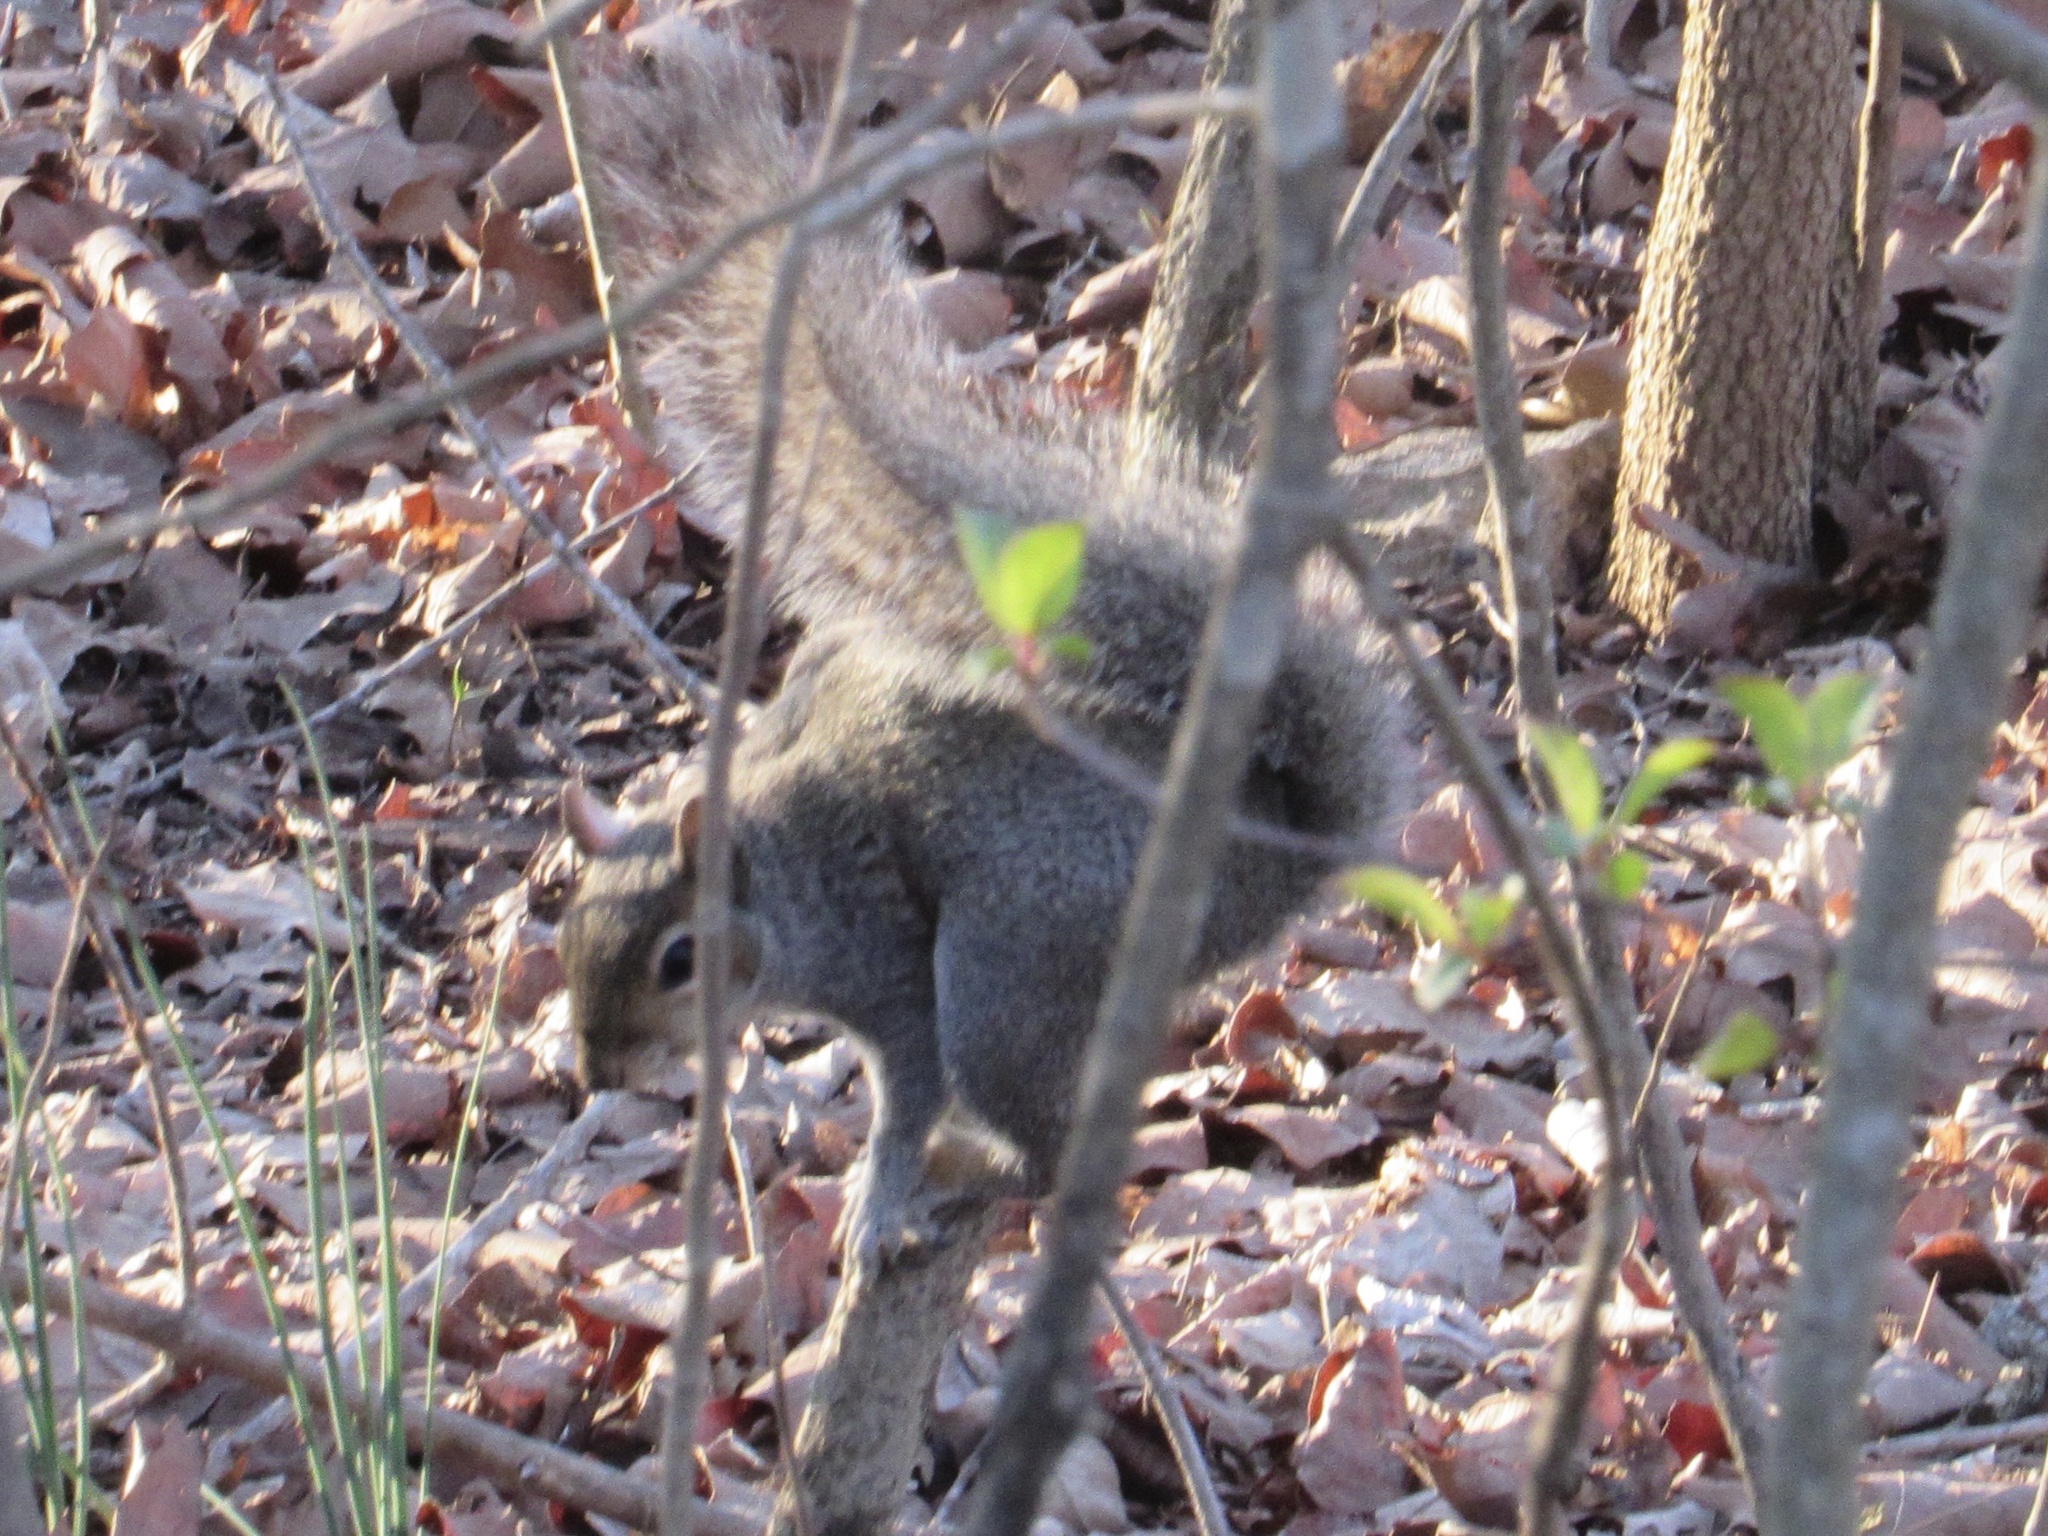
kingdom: Animalia
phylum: Chordata
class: Mammalia
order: Rodentia
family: Sciuridae
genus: Sciurus
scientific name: Sciurus carolinensis
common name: Eastern gray squirrel
